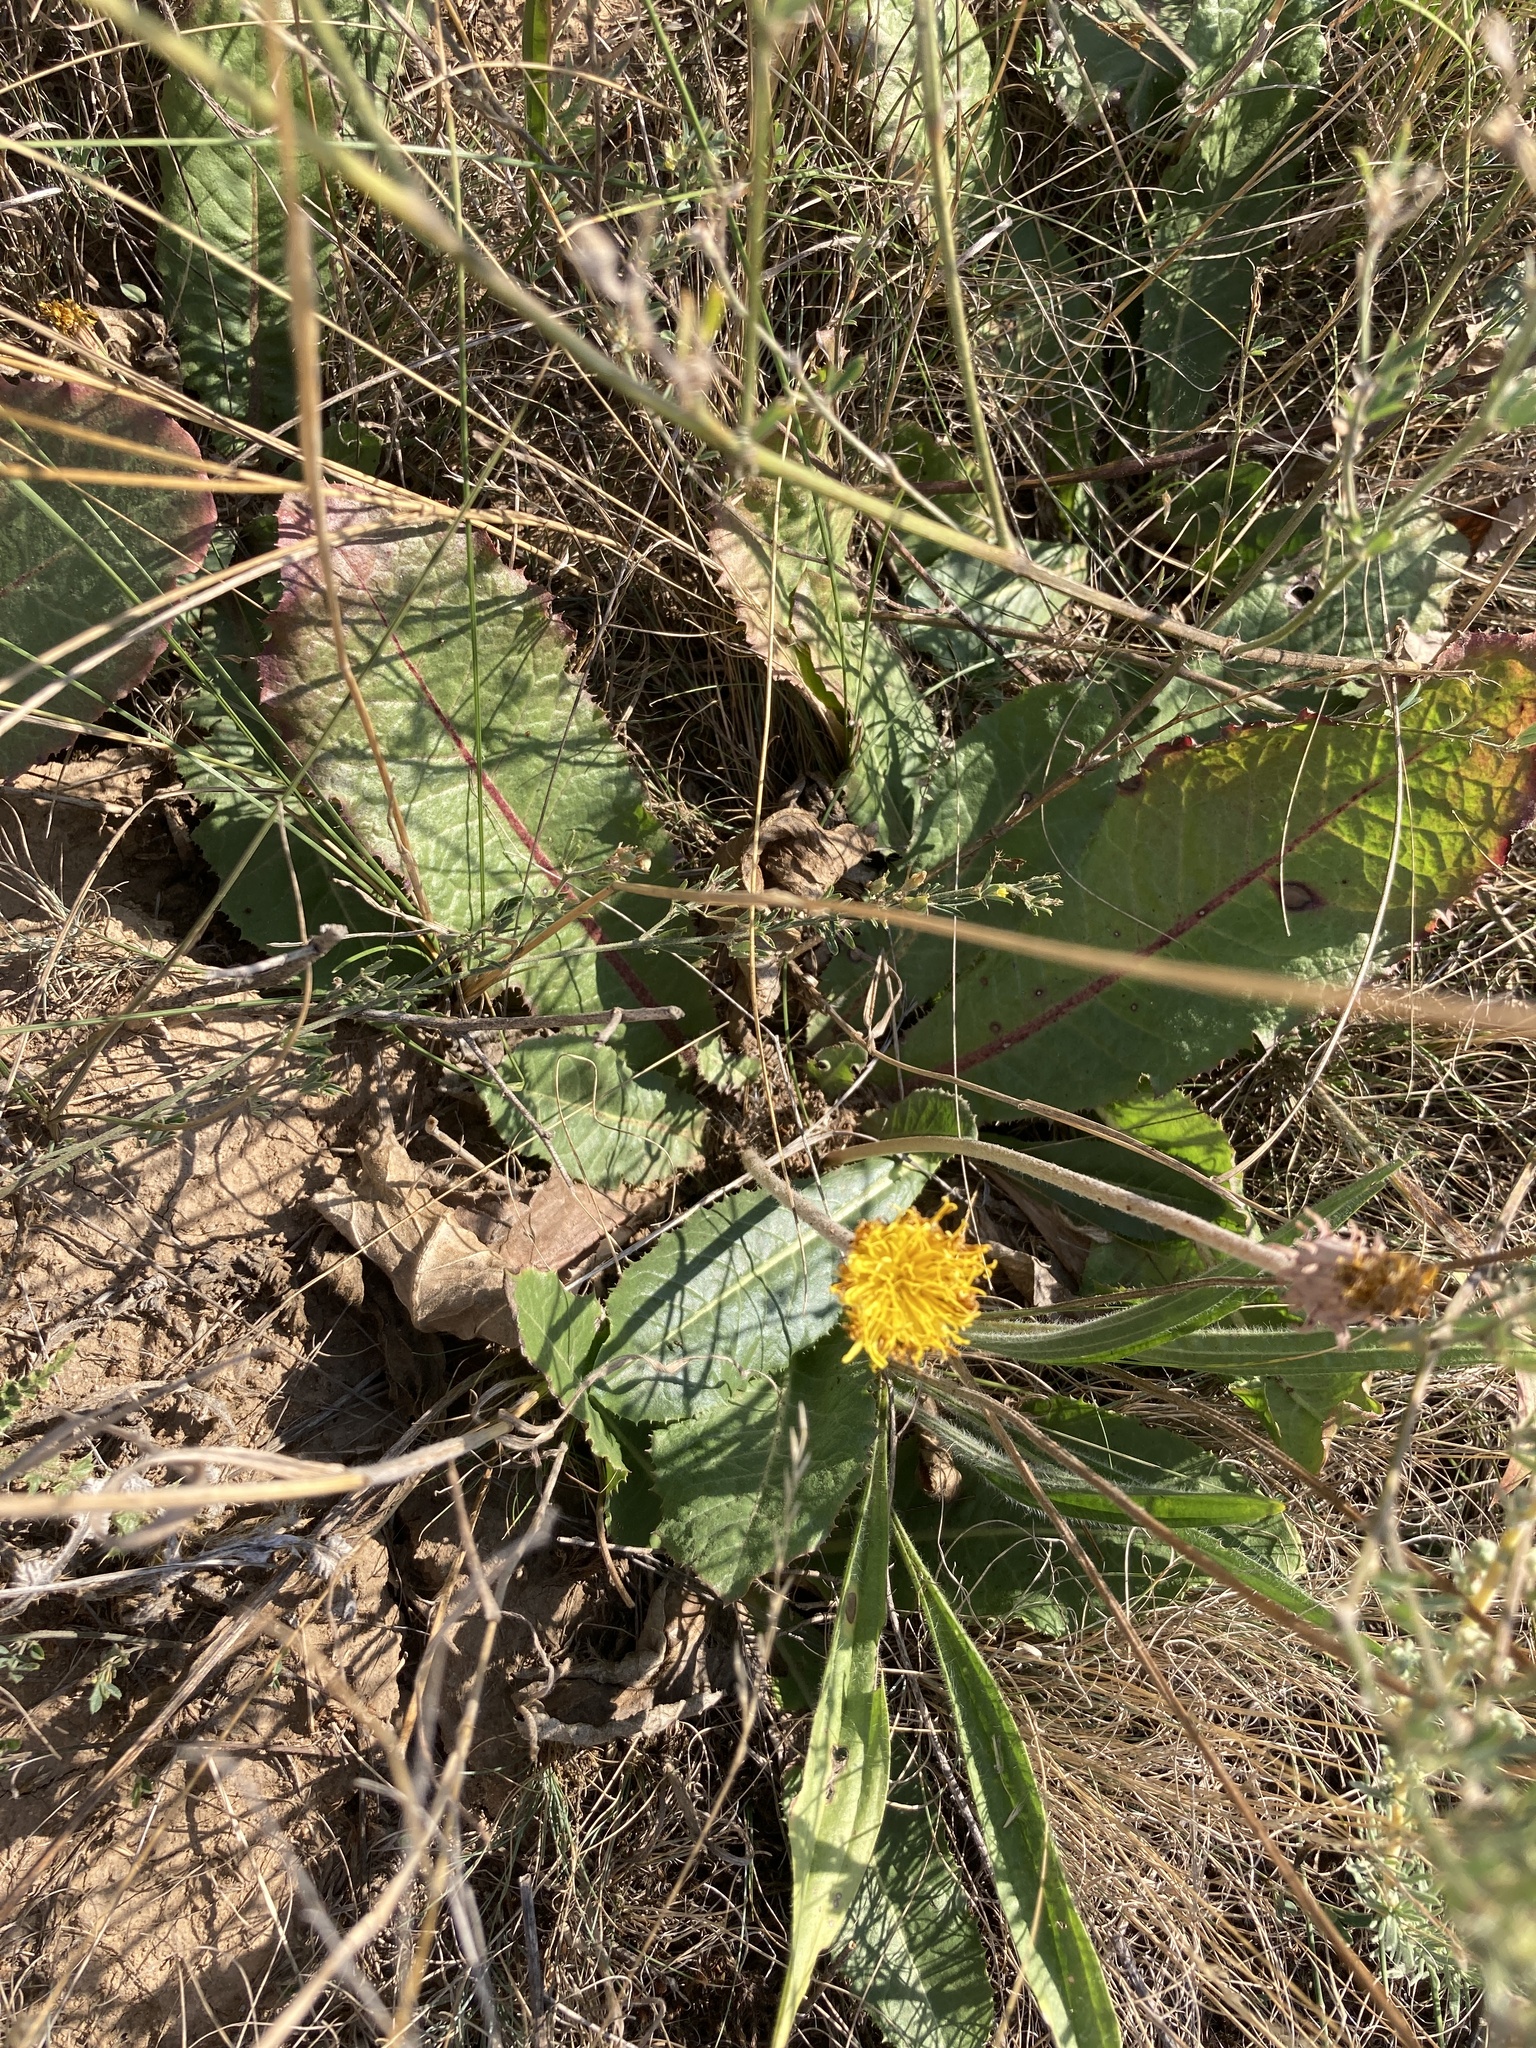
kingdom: Plantae
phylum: Tracheophyta
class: Magnoliopsida
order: Asterales
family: Asteraceae
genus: Taraxacum
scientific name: Taraxacum serotinum
